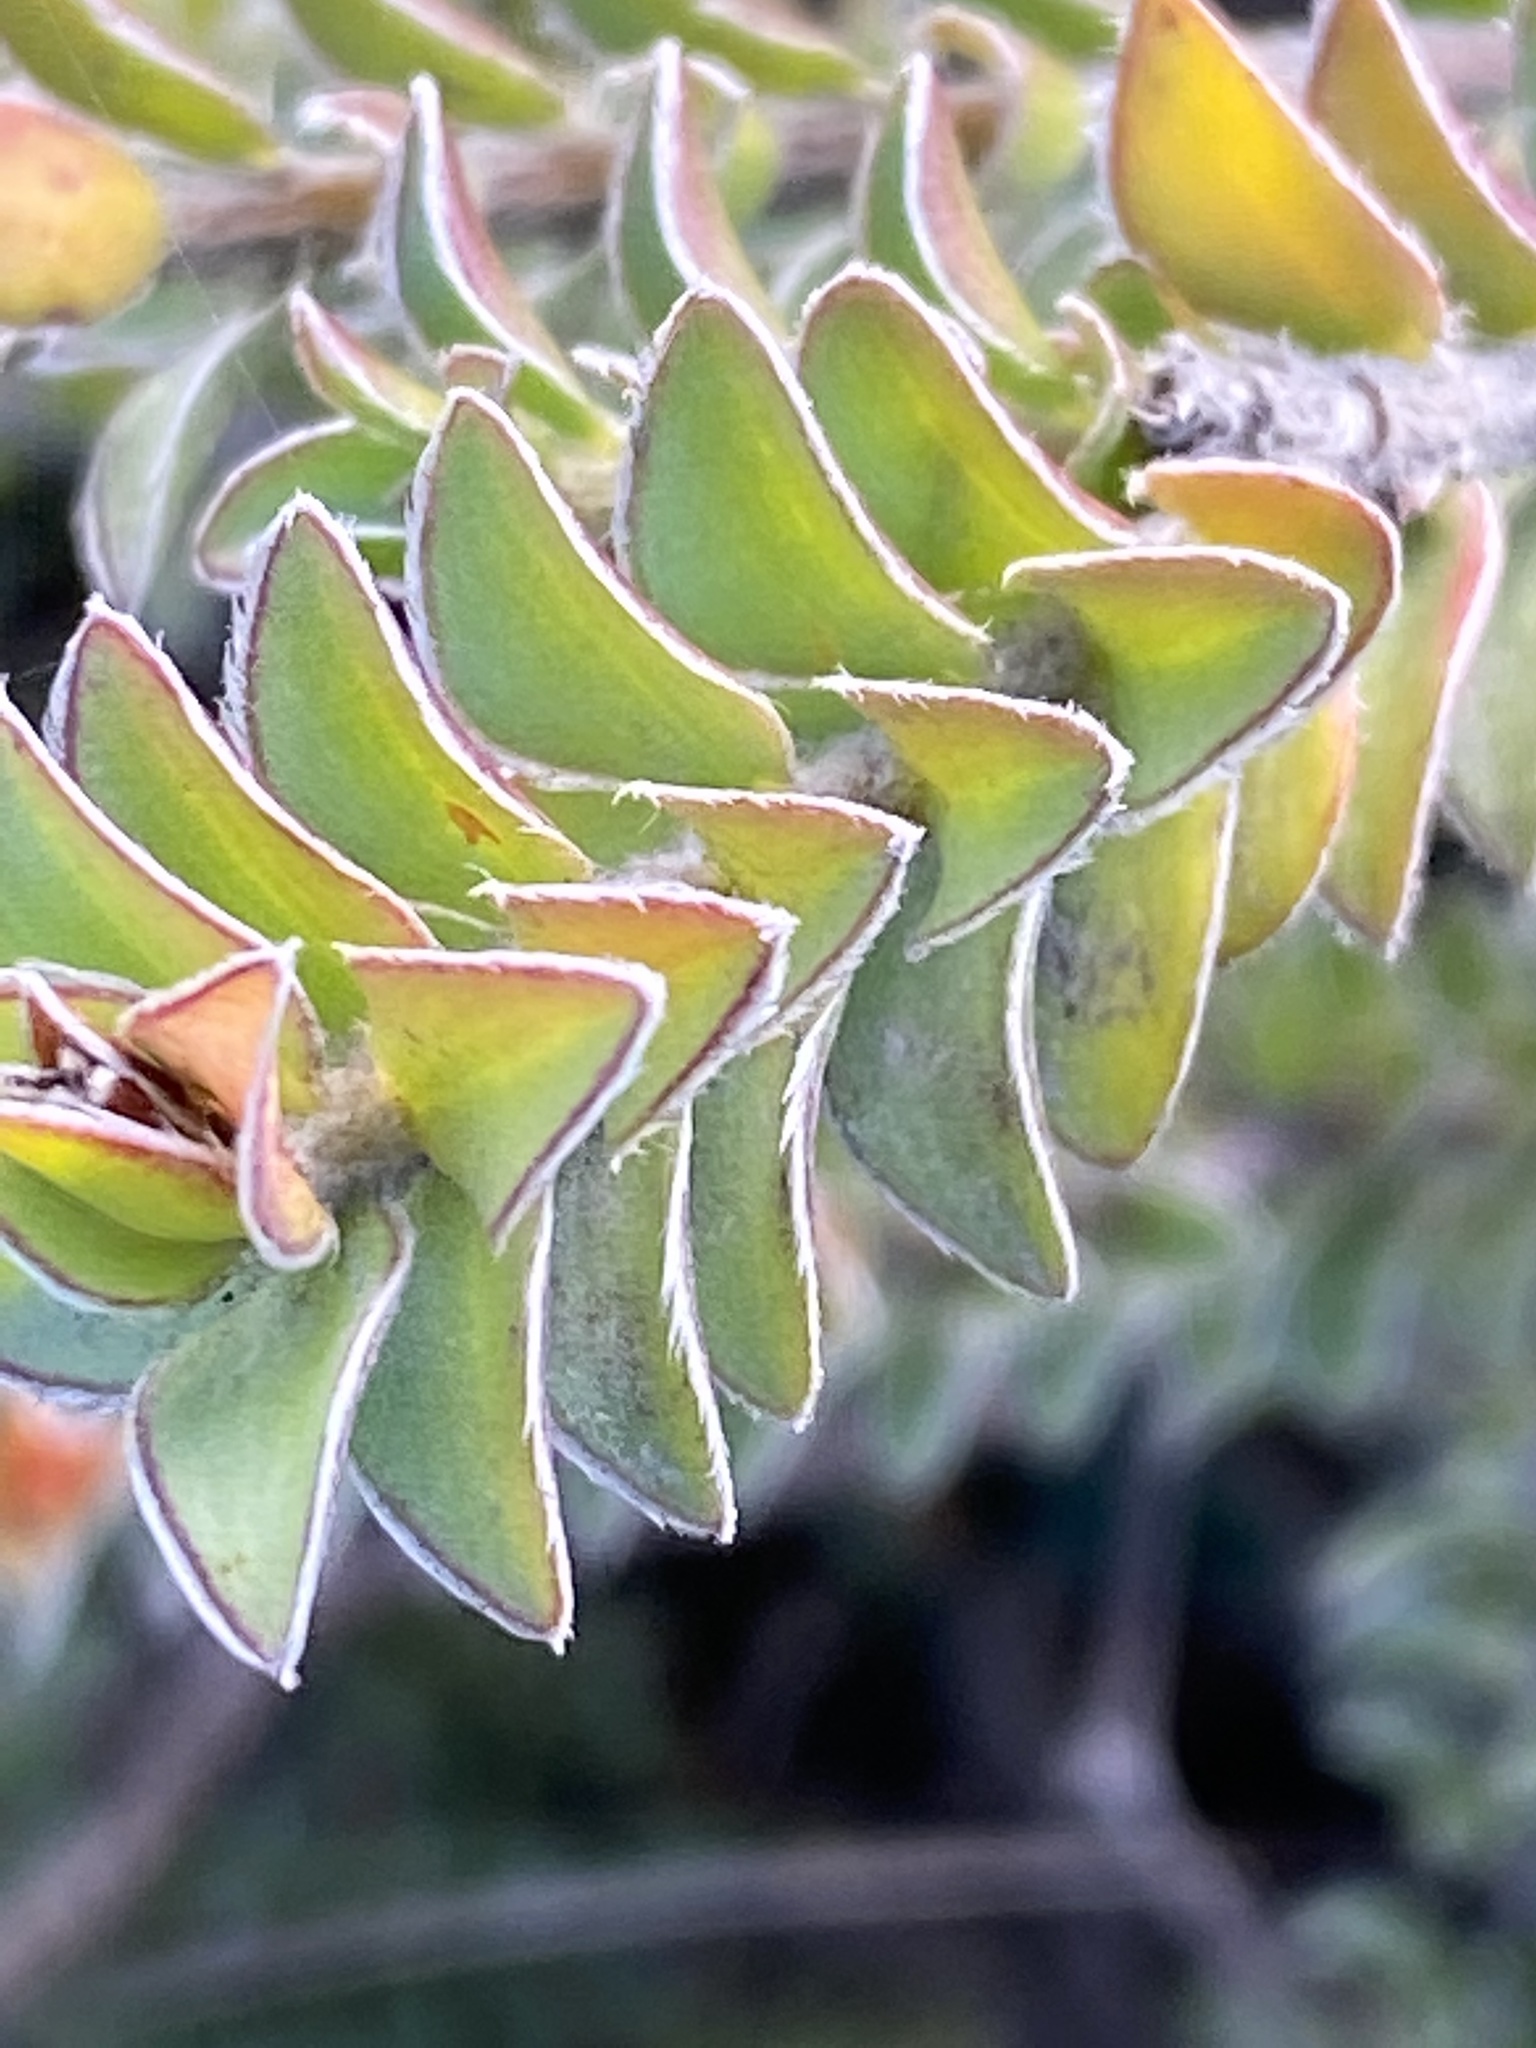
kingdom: Plantae
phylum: Tracheophyta
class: Magnoliopsida
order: Malvales
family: Thymelaeaceae
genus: Struthiola
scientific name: Struthiola argentea
